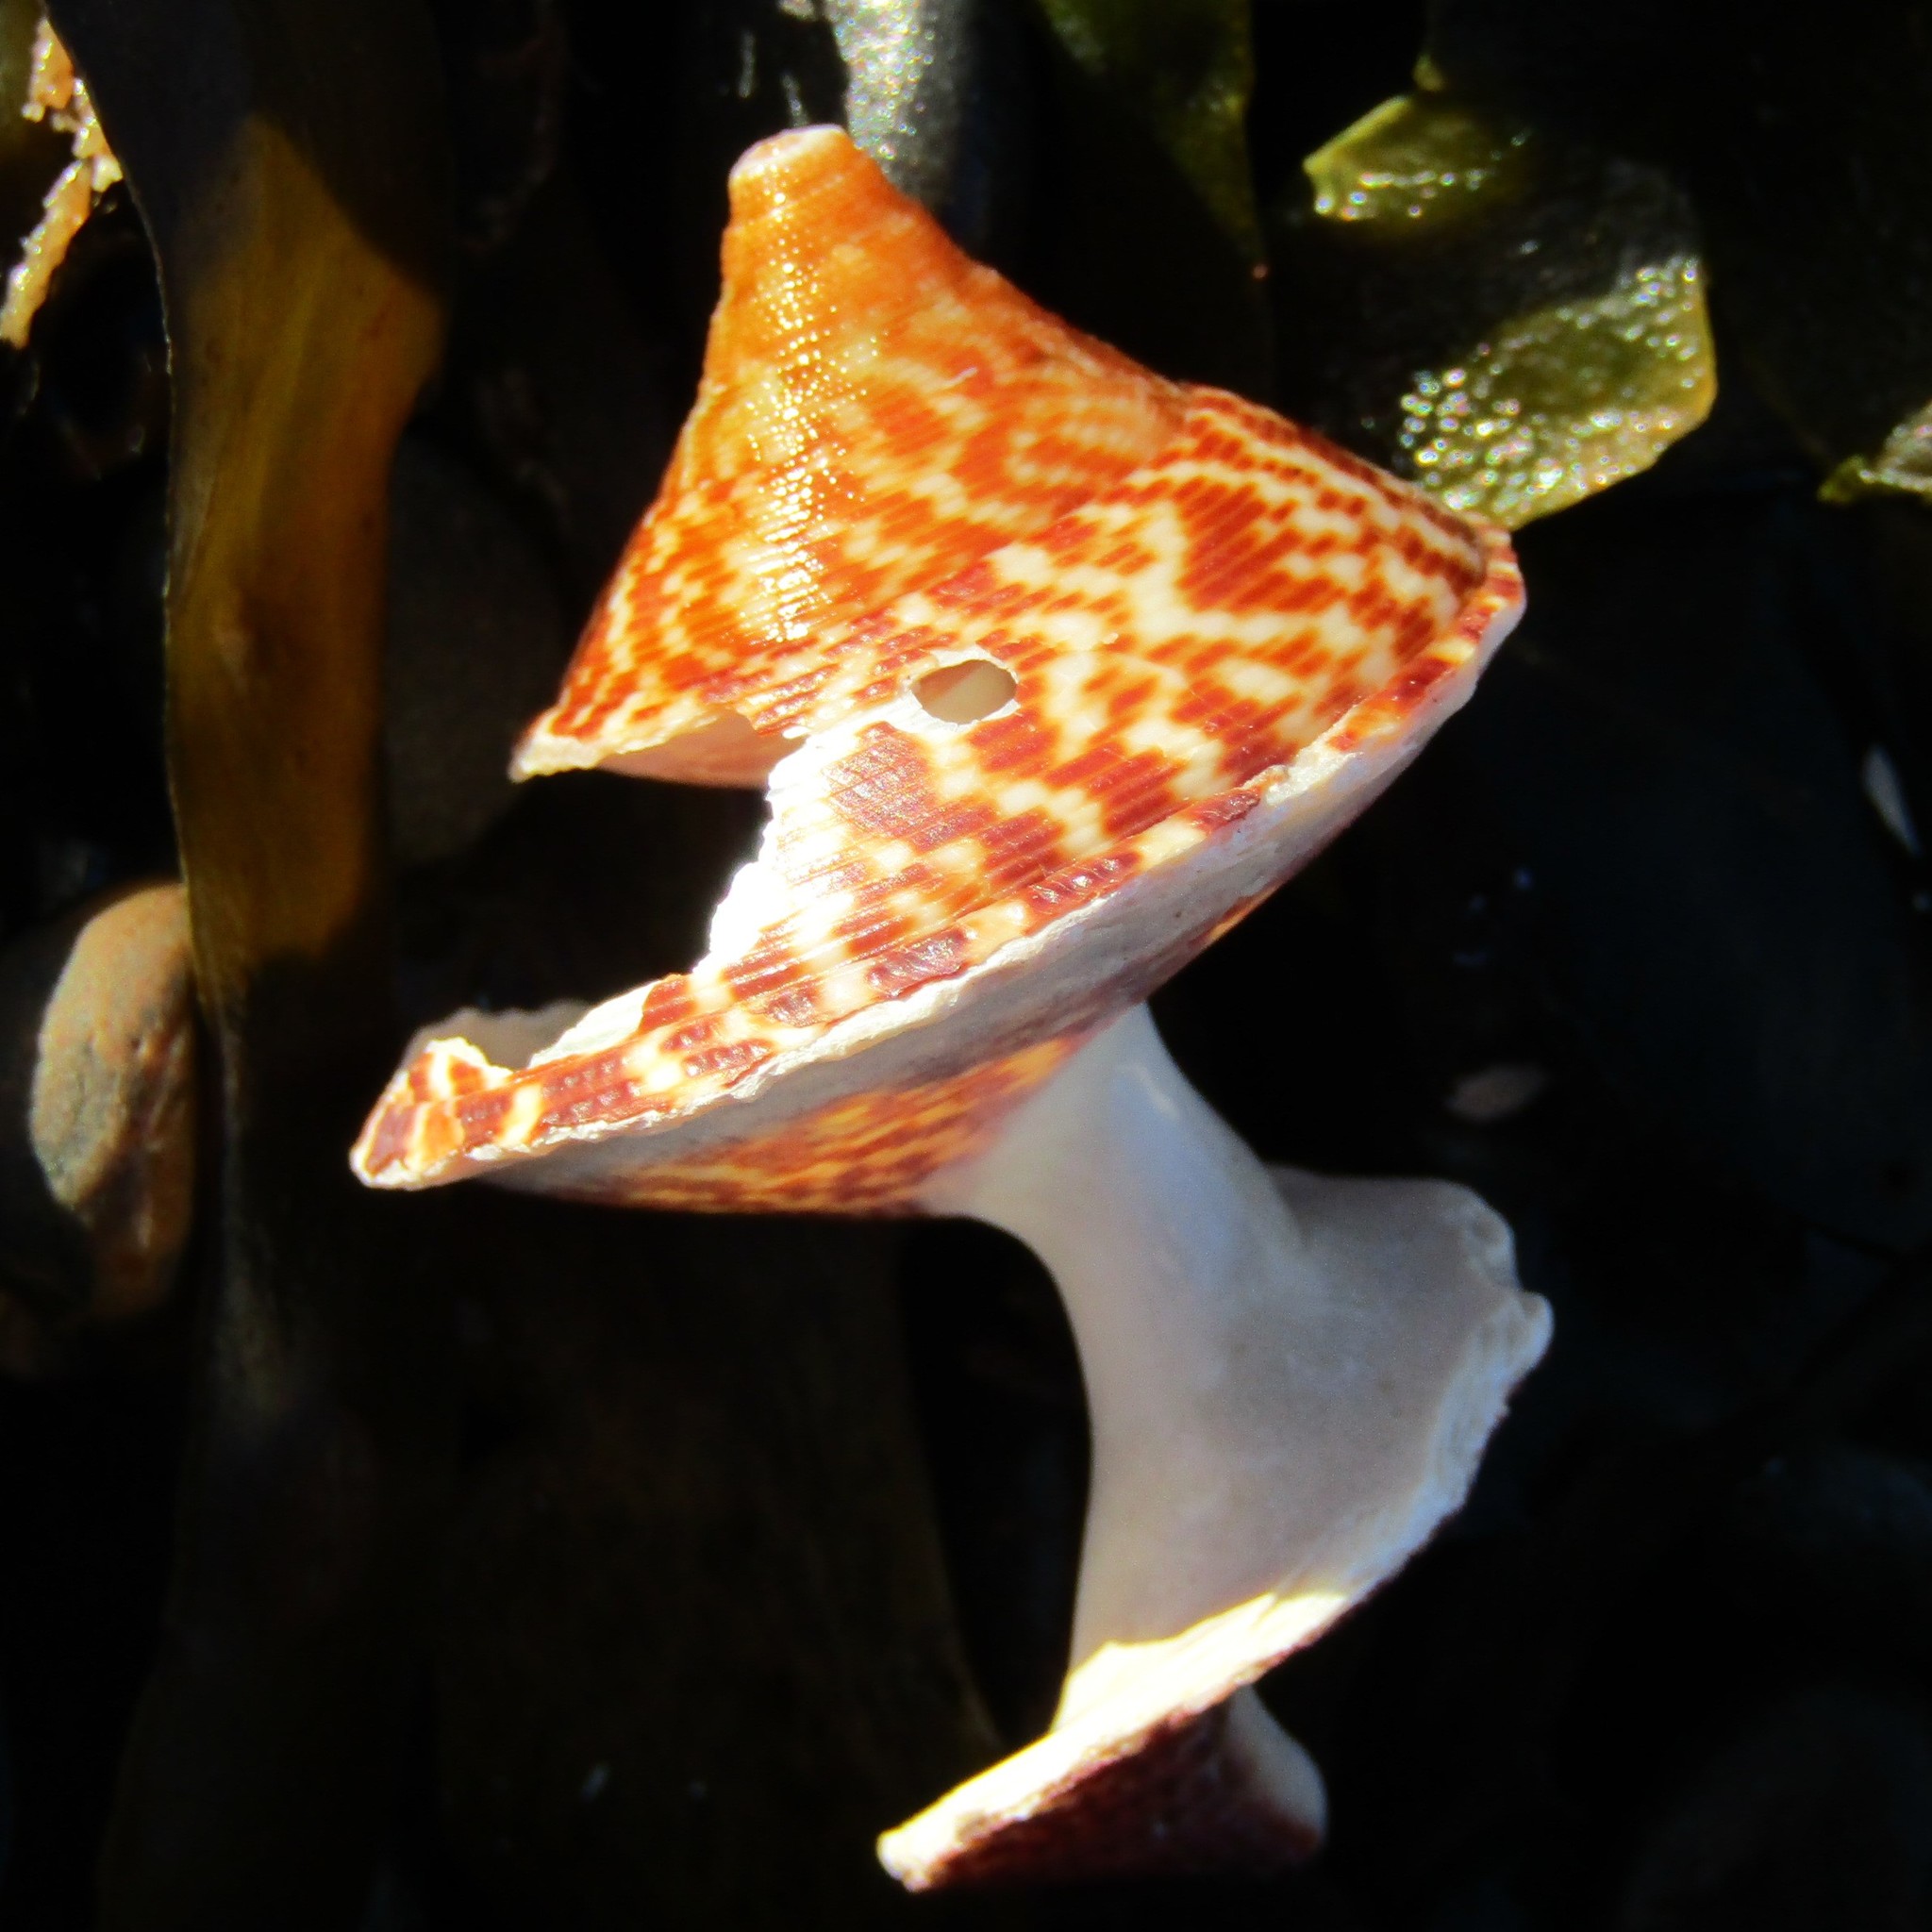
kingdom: Animalia
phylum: Mollusca
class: Gastropoda
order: Trochida
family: Calliostomatidae
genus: Maurea
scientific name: Maurea tigris
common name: Tiger maurea
